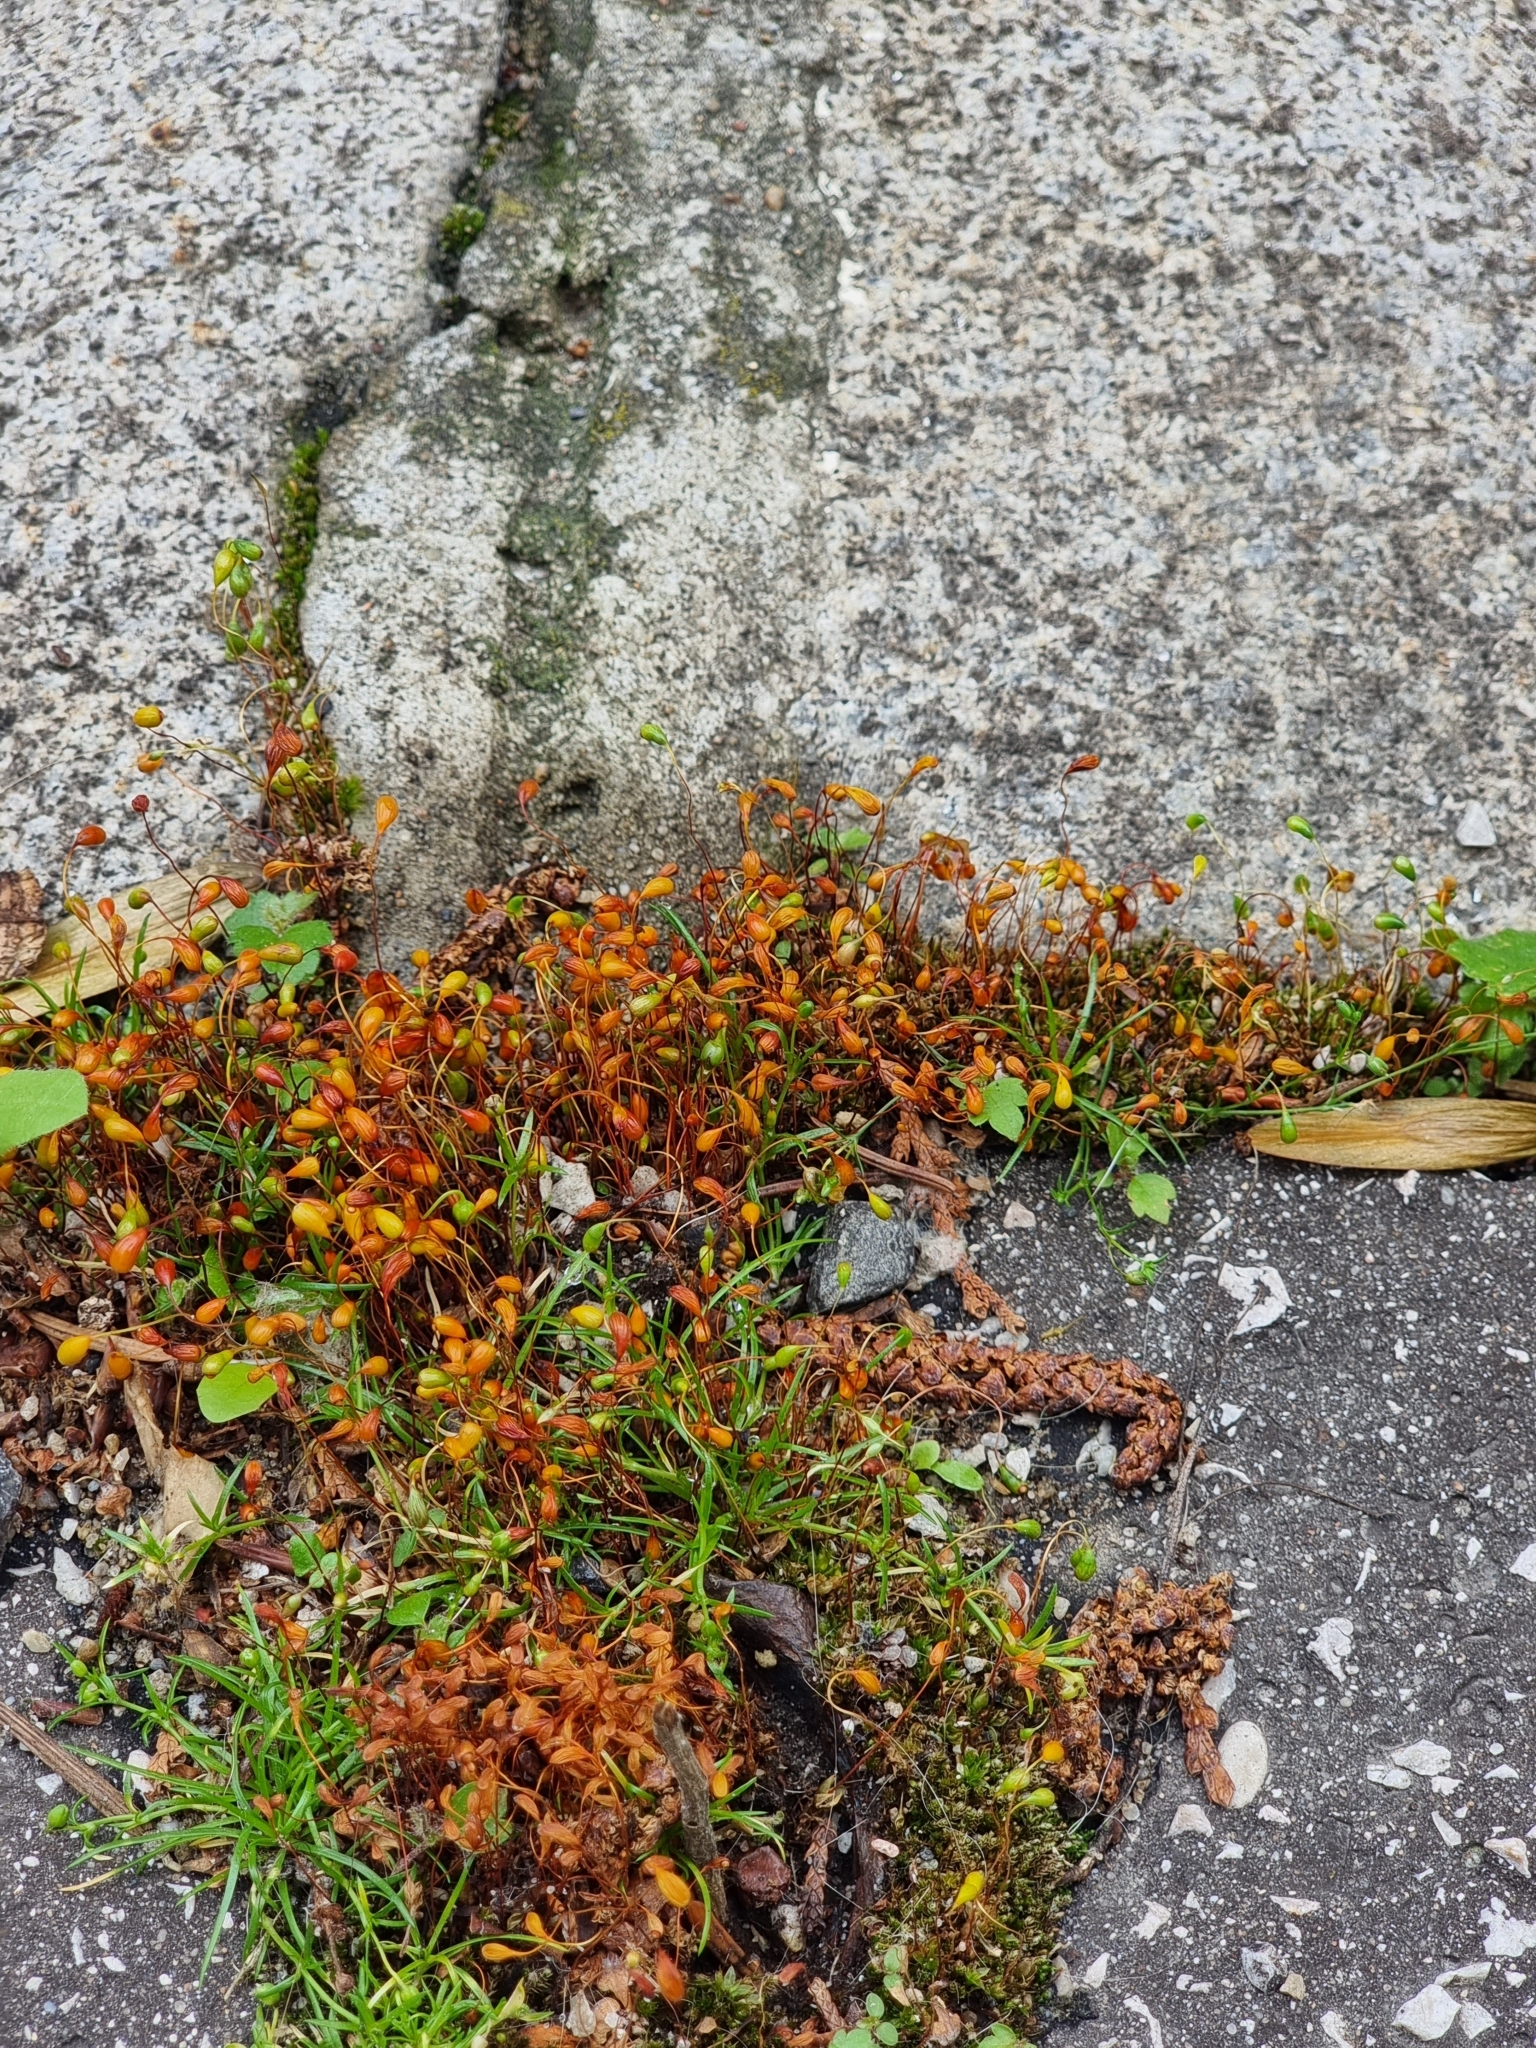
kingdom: Plantae
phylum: Bryophyta
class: Bryopsida
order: Funariales
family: Funariaceae
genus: Funaria
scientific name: Funaria hygrometrica
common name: Common cord moss
